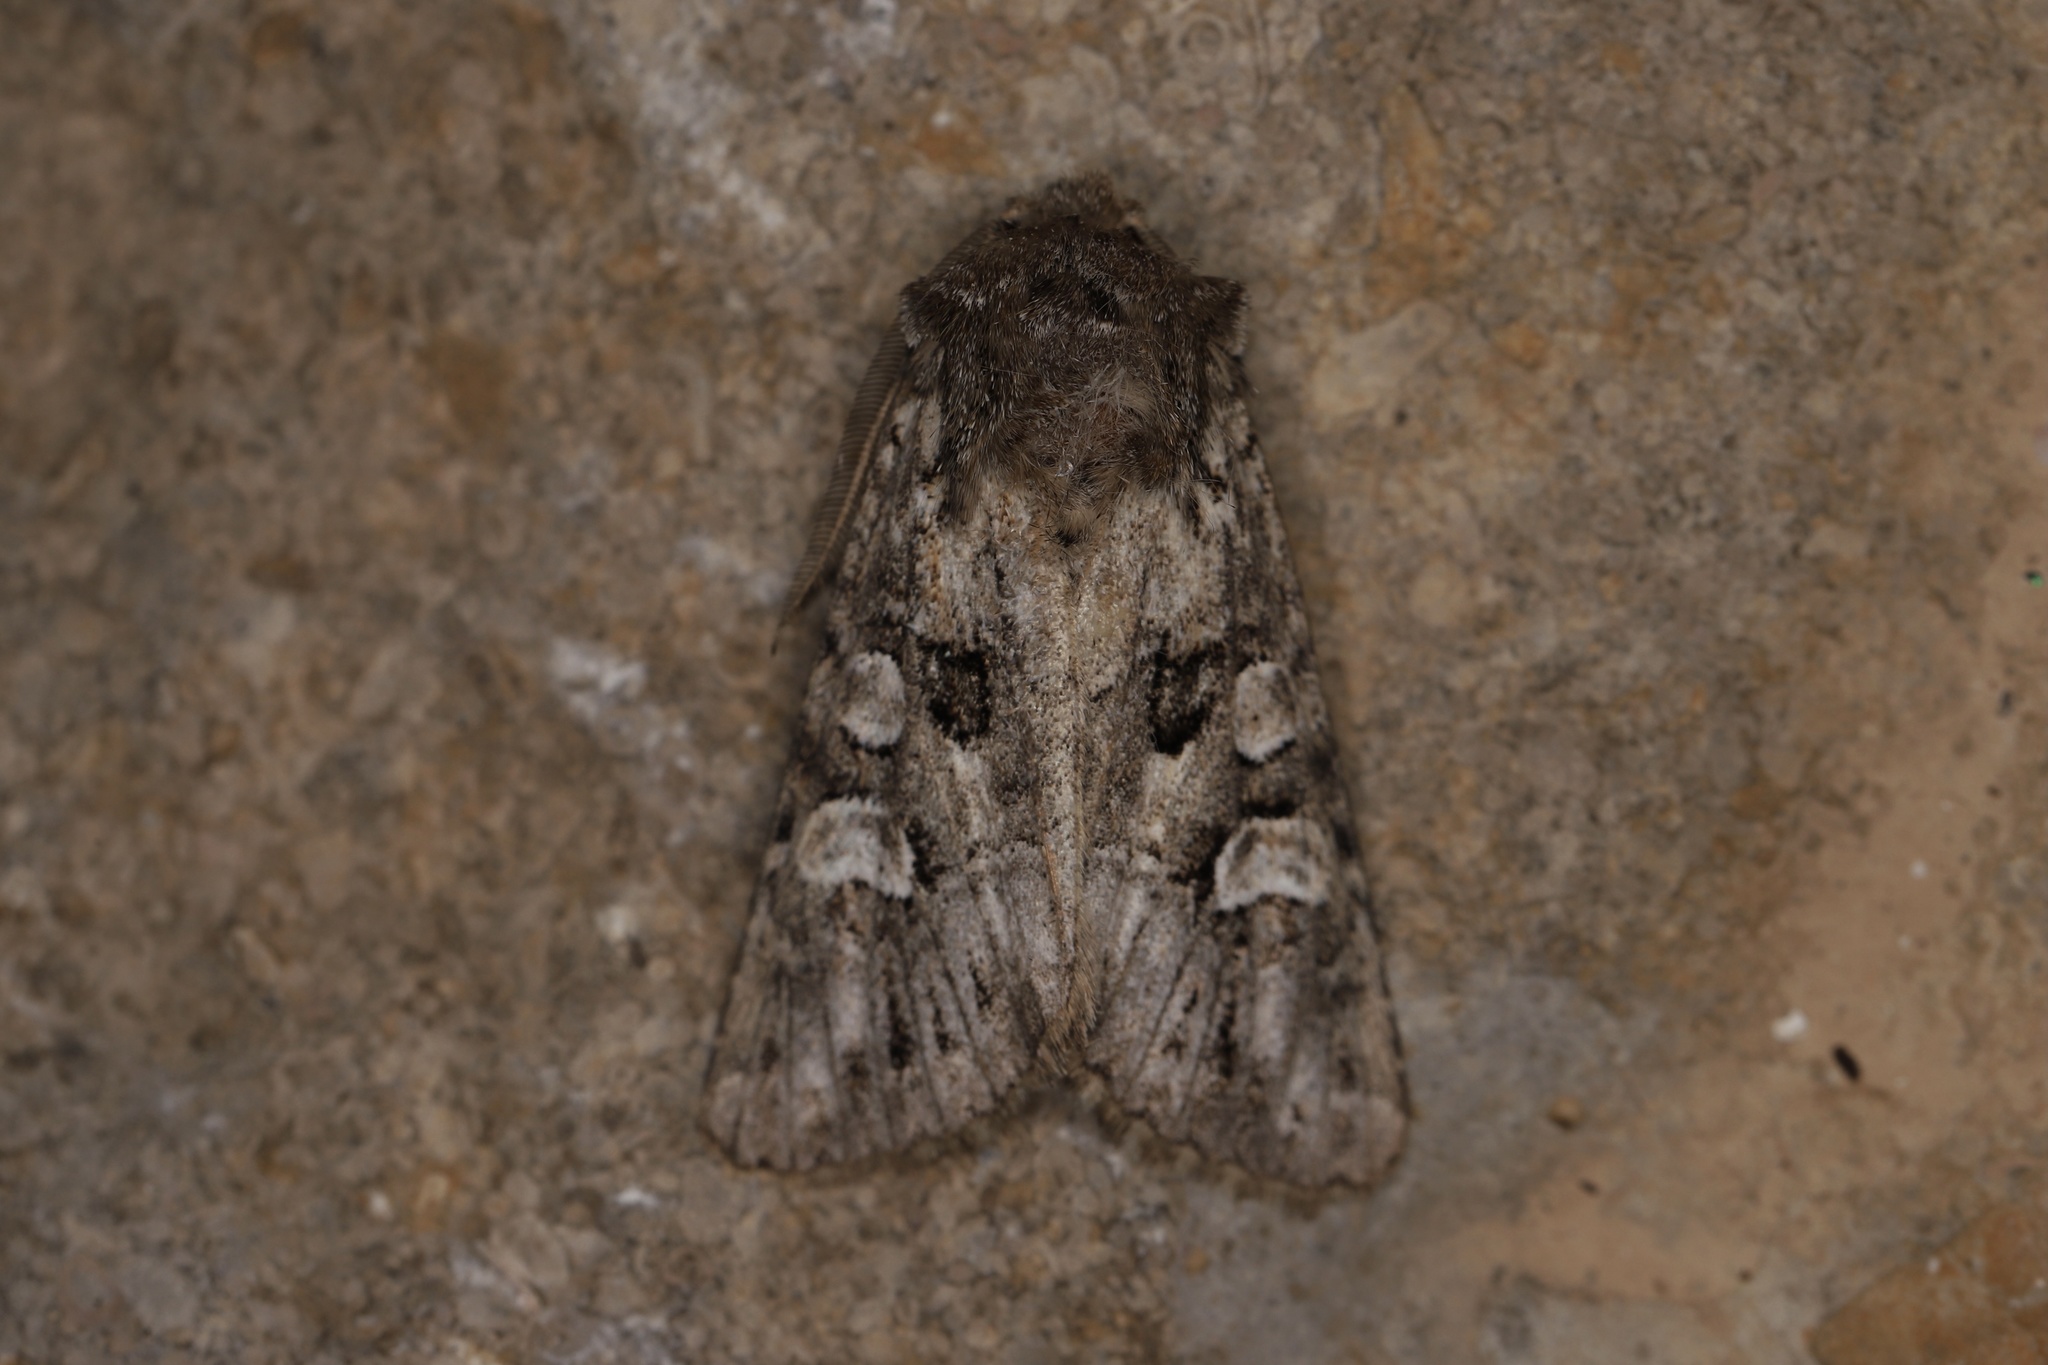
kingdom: Animalia
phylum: Arthropoda
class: Insecta
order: Lepidoptera
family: Noctuidae
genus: Pachetra
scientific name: Pachetra sagittigera
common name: Feathered ear
